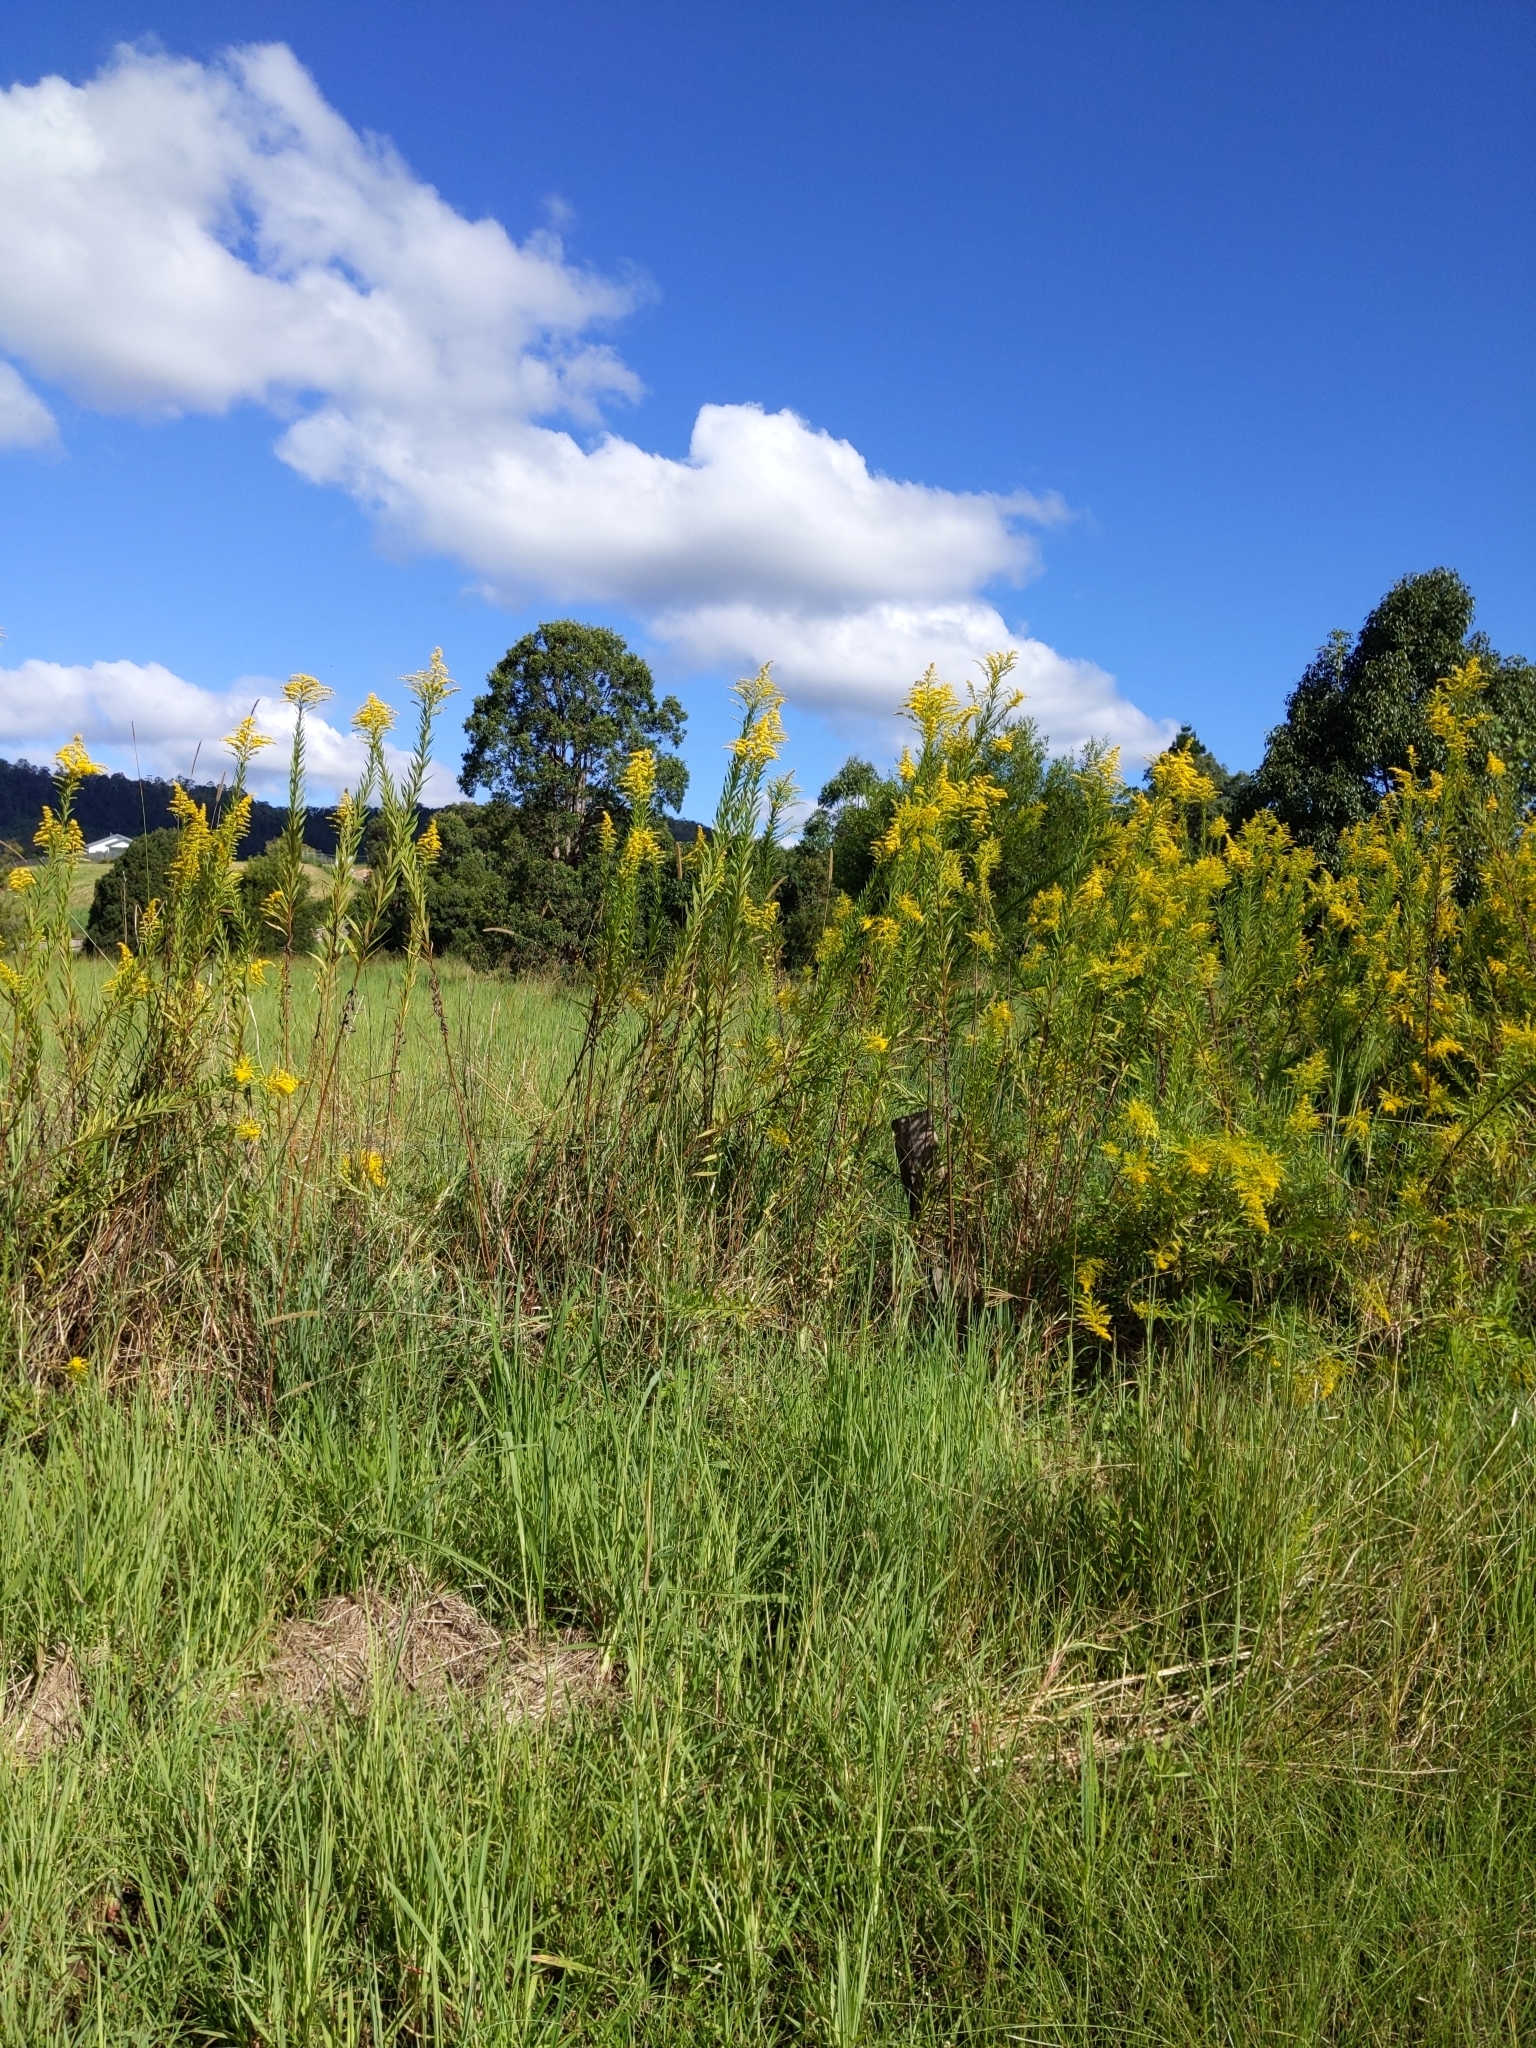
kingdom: Plantae
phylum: Tracheophyta
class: Magnoliopsida
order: Asterales
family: Asteraceae
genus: Solidago
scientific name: Solidago altissima
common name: Late goldenrod
